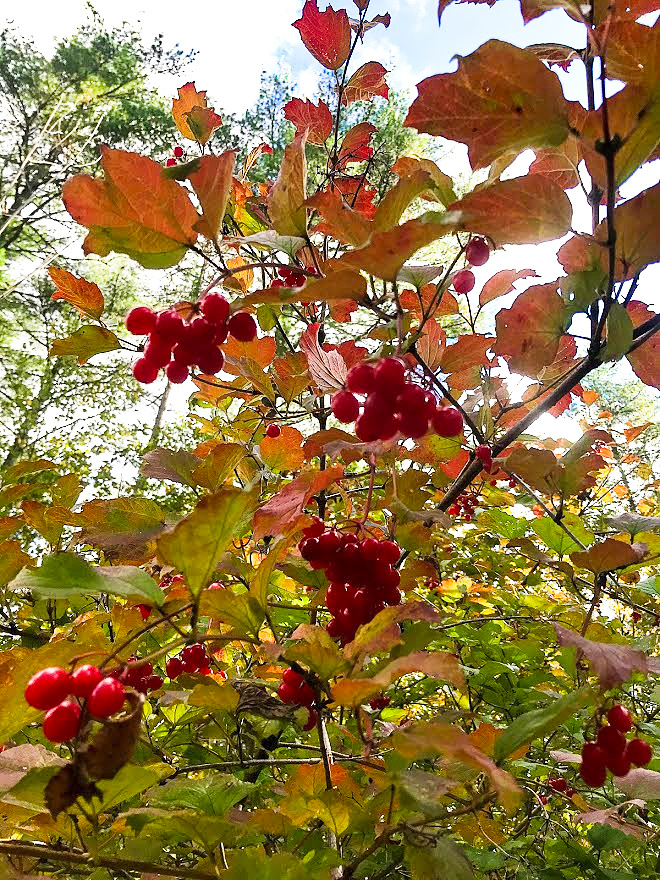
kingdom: Plantae
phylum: Tracheophyta
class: Magnoliopsida
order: Dipsacales
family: Viburnaceae
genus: Viburnum
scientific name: Viburnum opulus
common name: Guelder-rose
